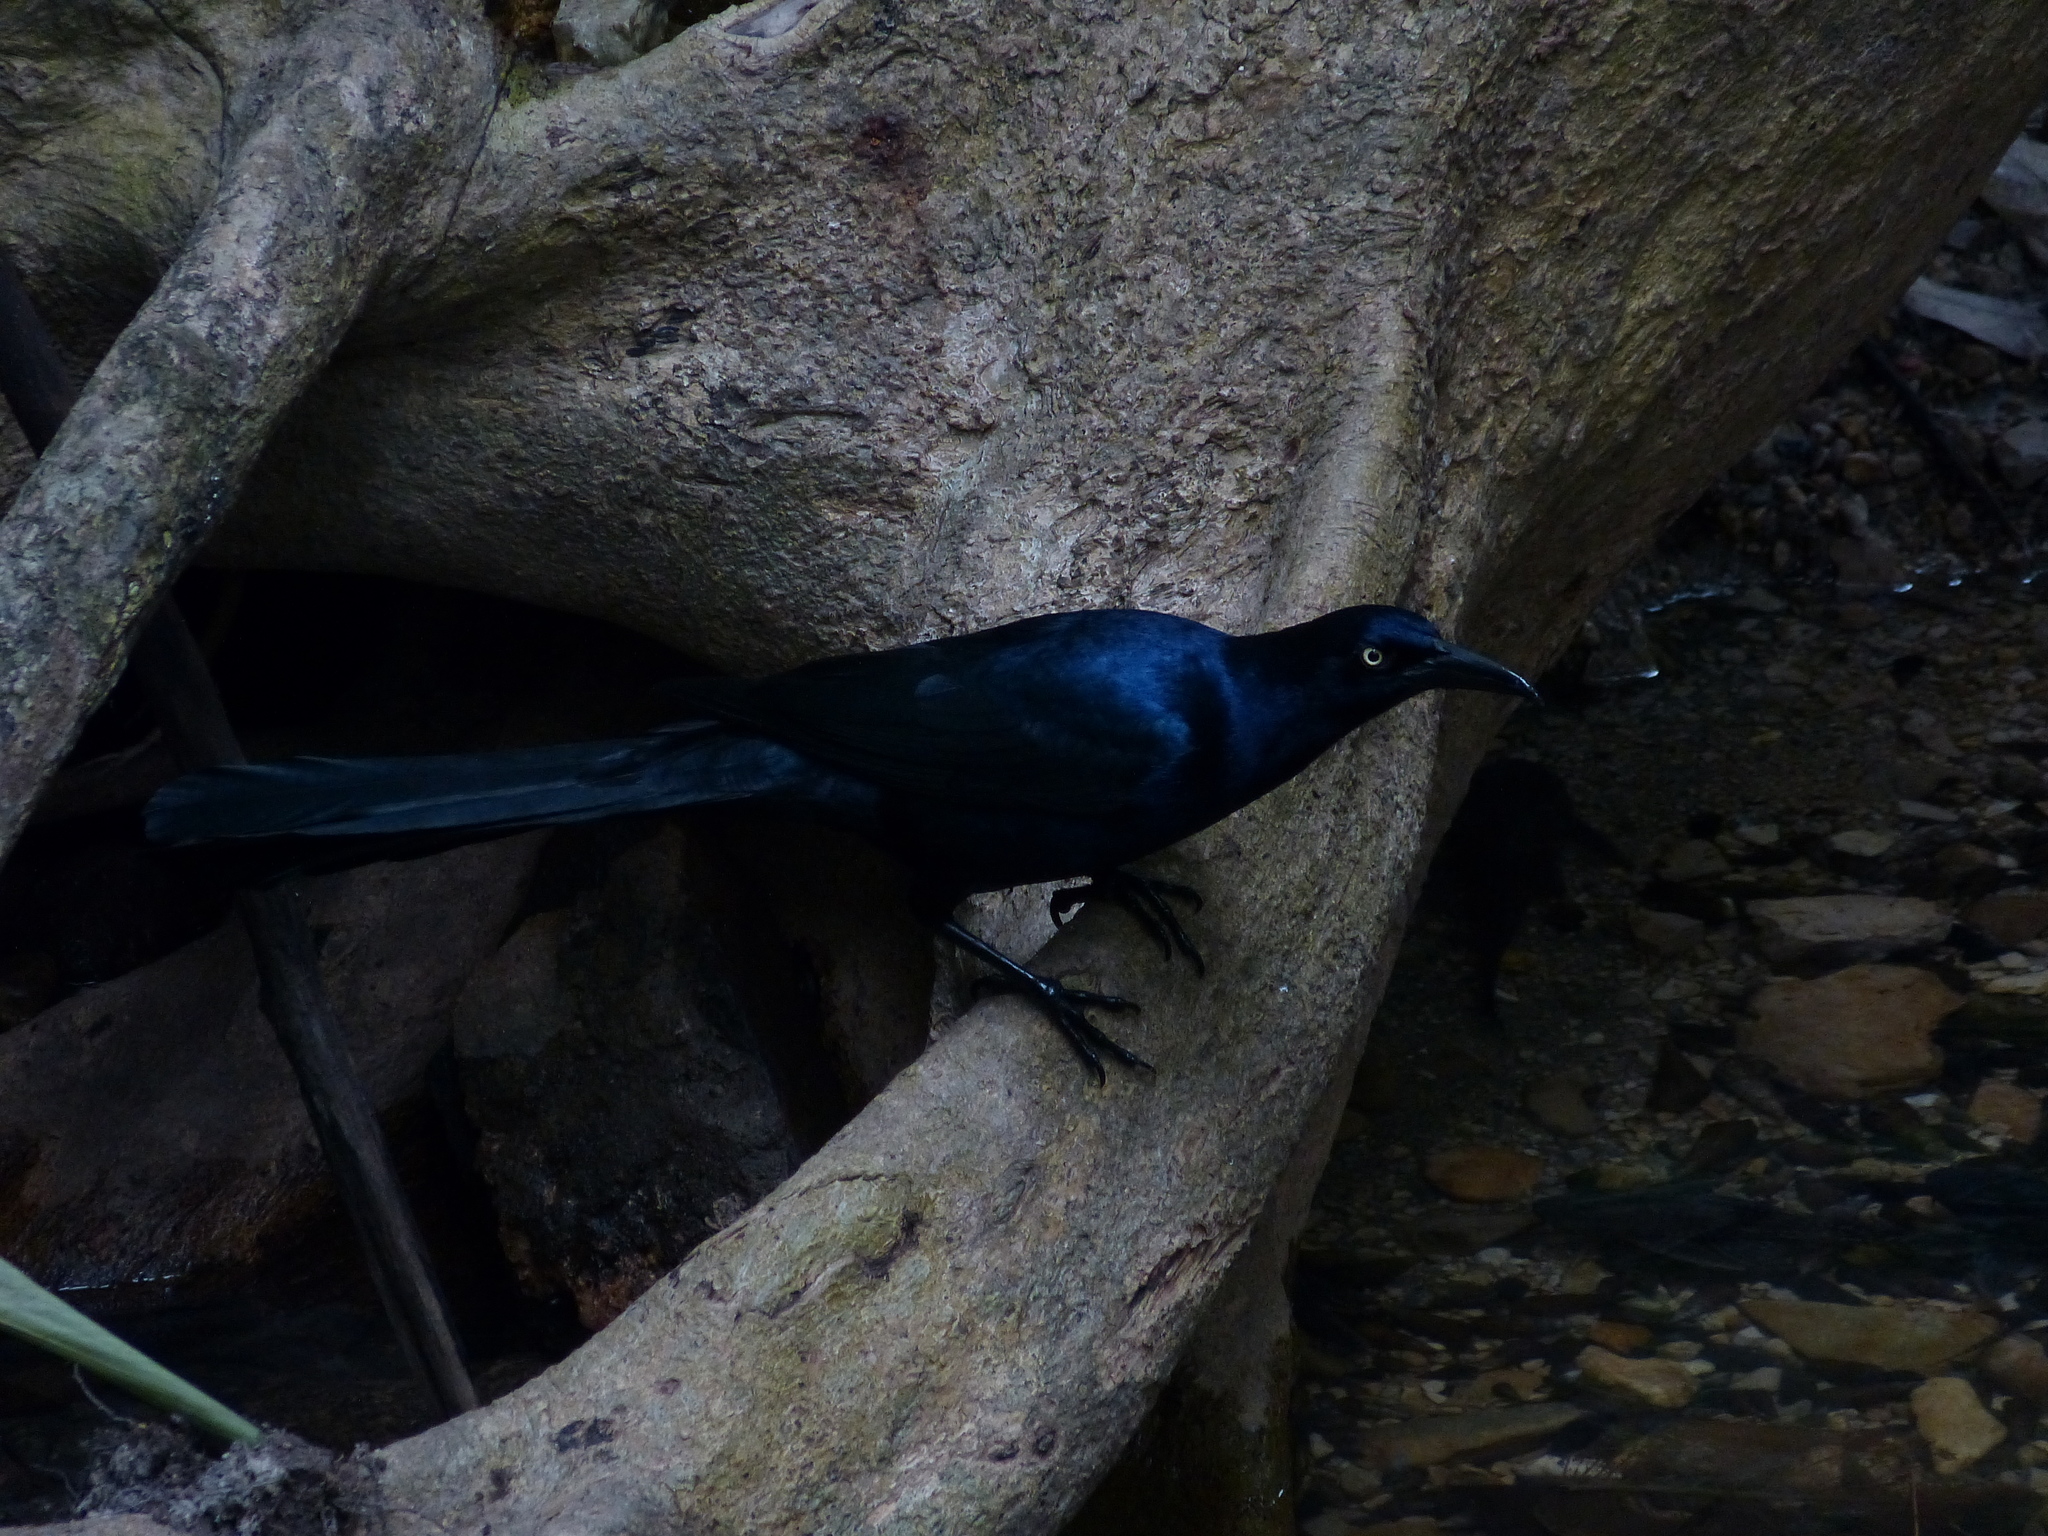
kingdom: Animalia
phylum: Chordata
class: Aves
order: Passeriformes
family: Icteridae
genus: Quiscalus
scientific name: Quiscalus mexicanus
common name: Great-tailed grackle
